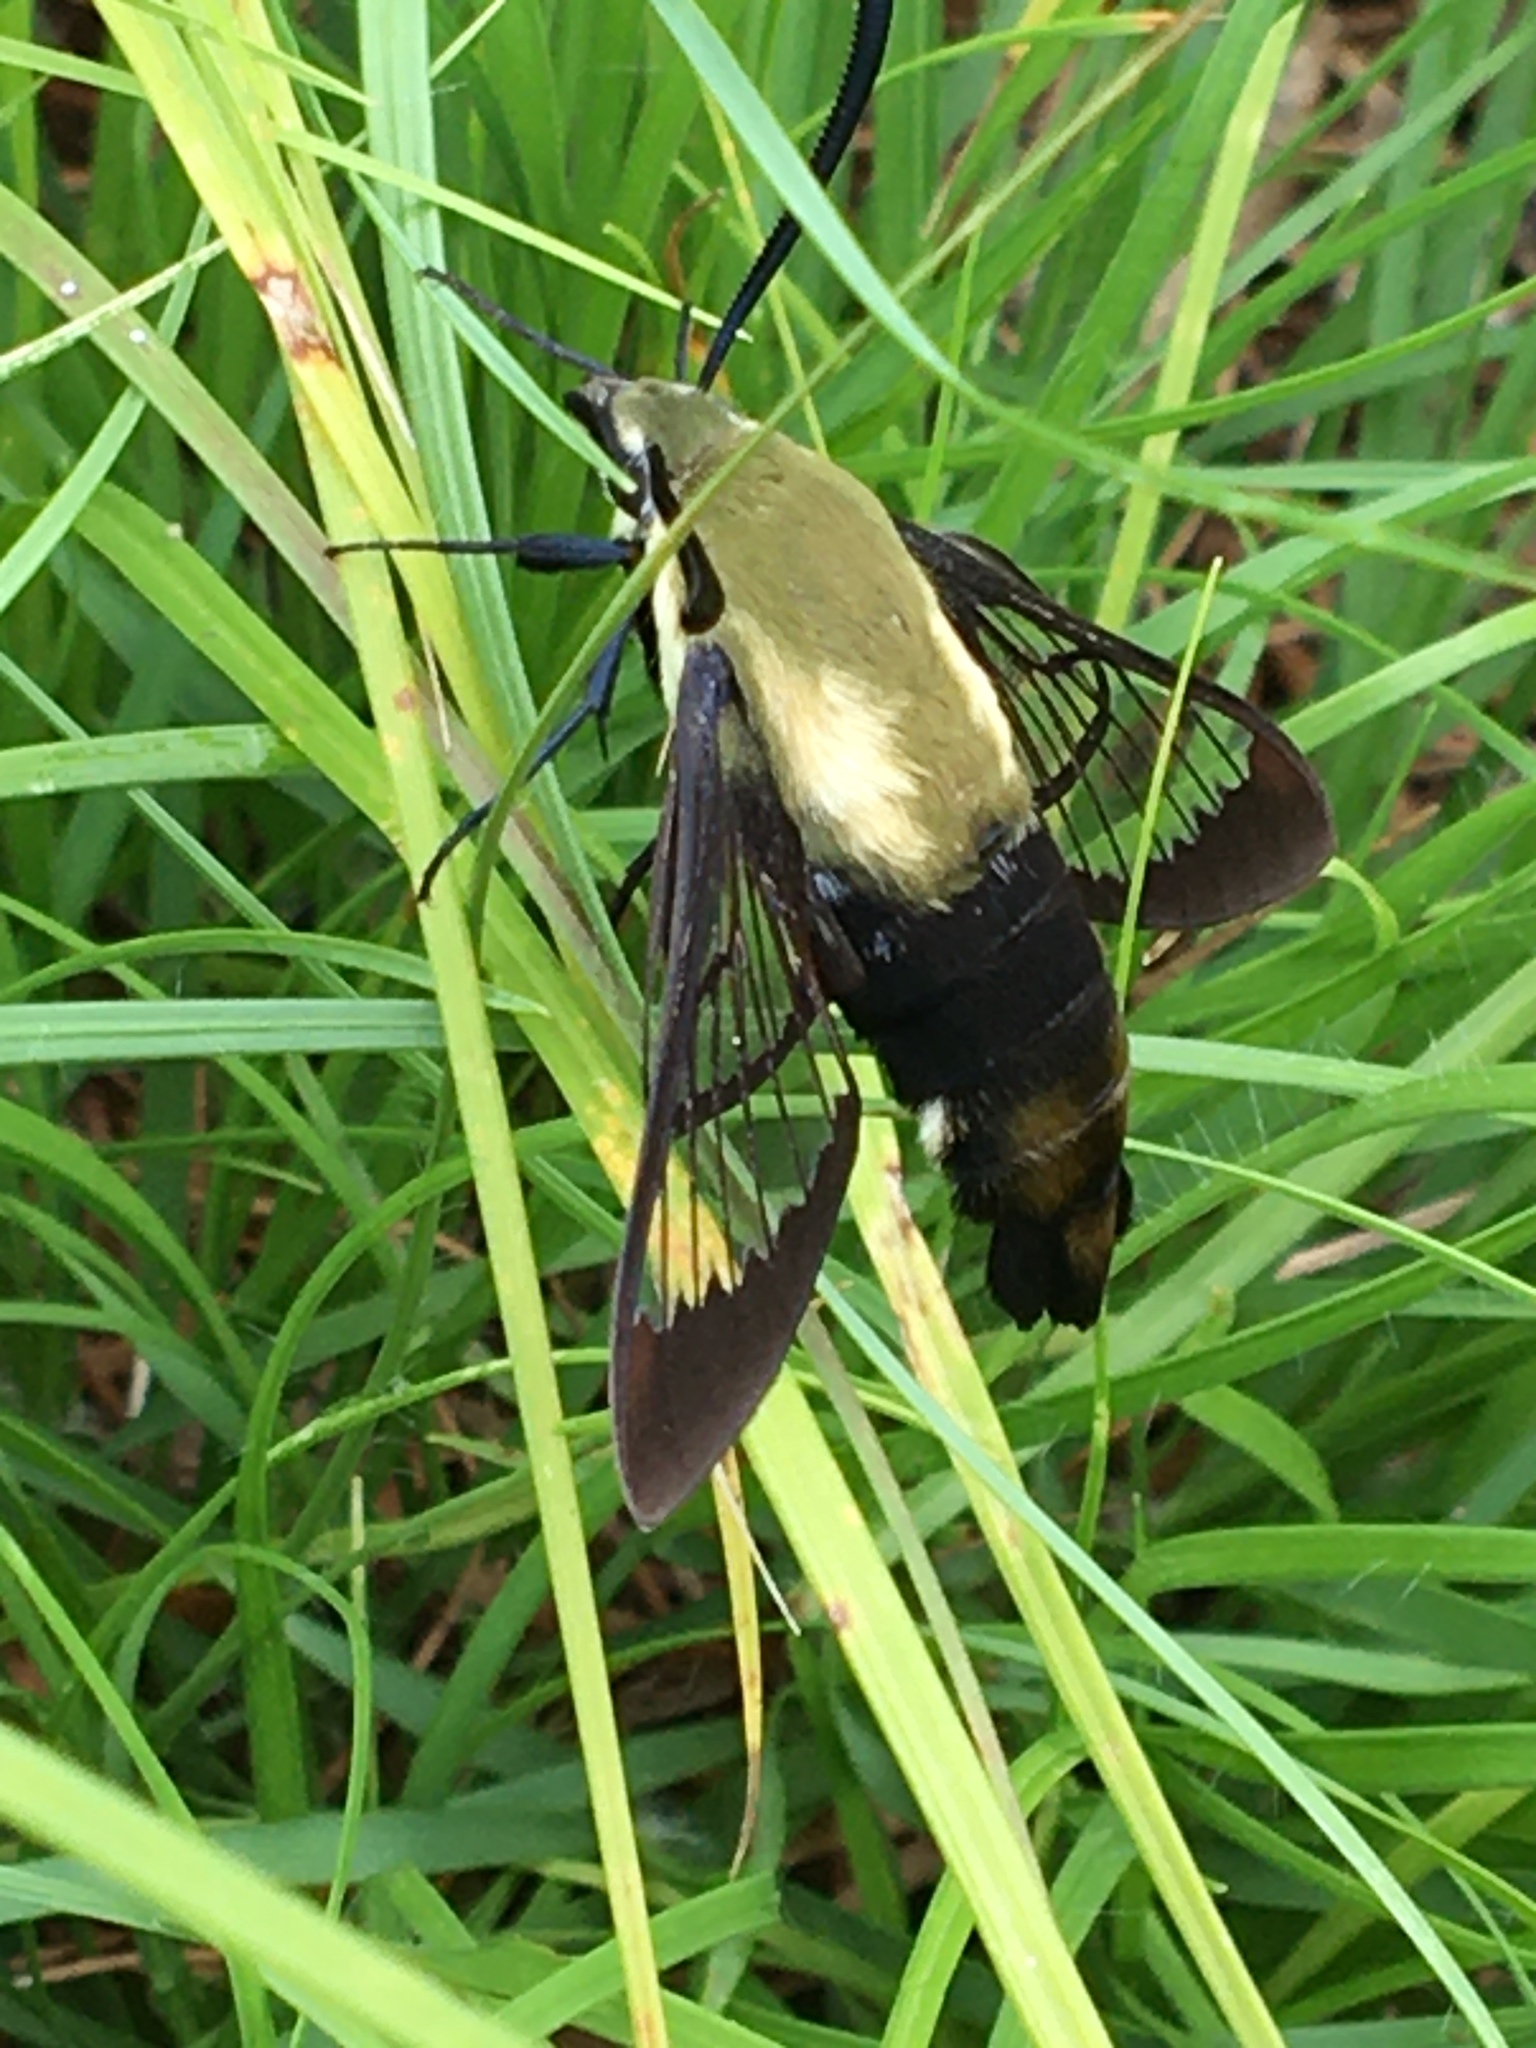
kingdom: Animalia
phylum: Arthropoda
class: Insecta
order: Lepidoptera
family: Sphingidae
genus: Hemaris
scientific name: Hemaris diffinis
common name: Bumblebee moth
